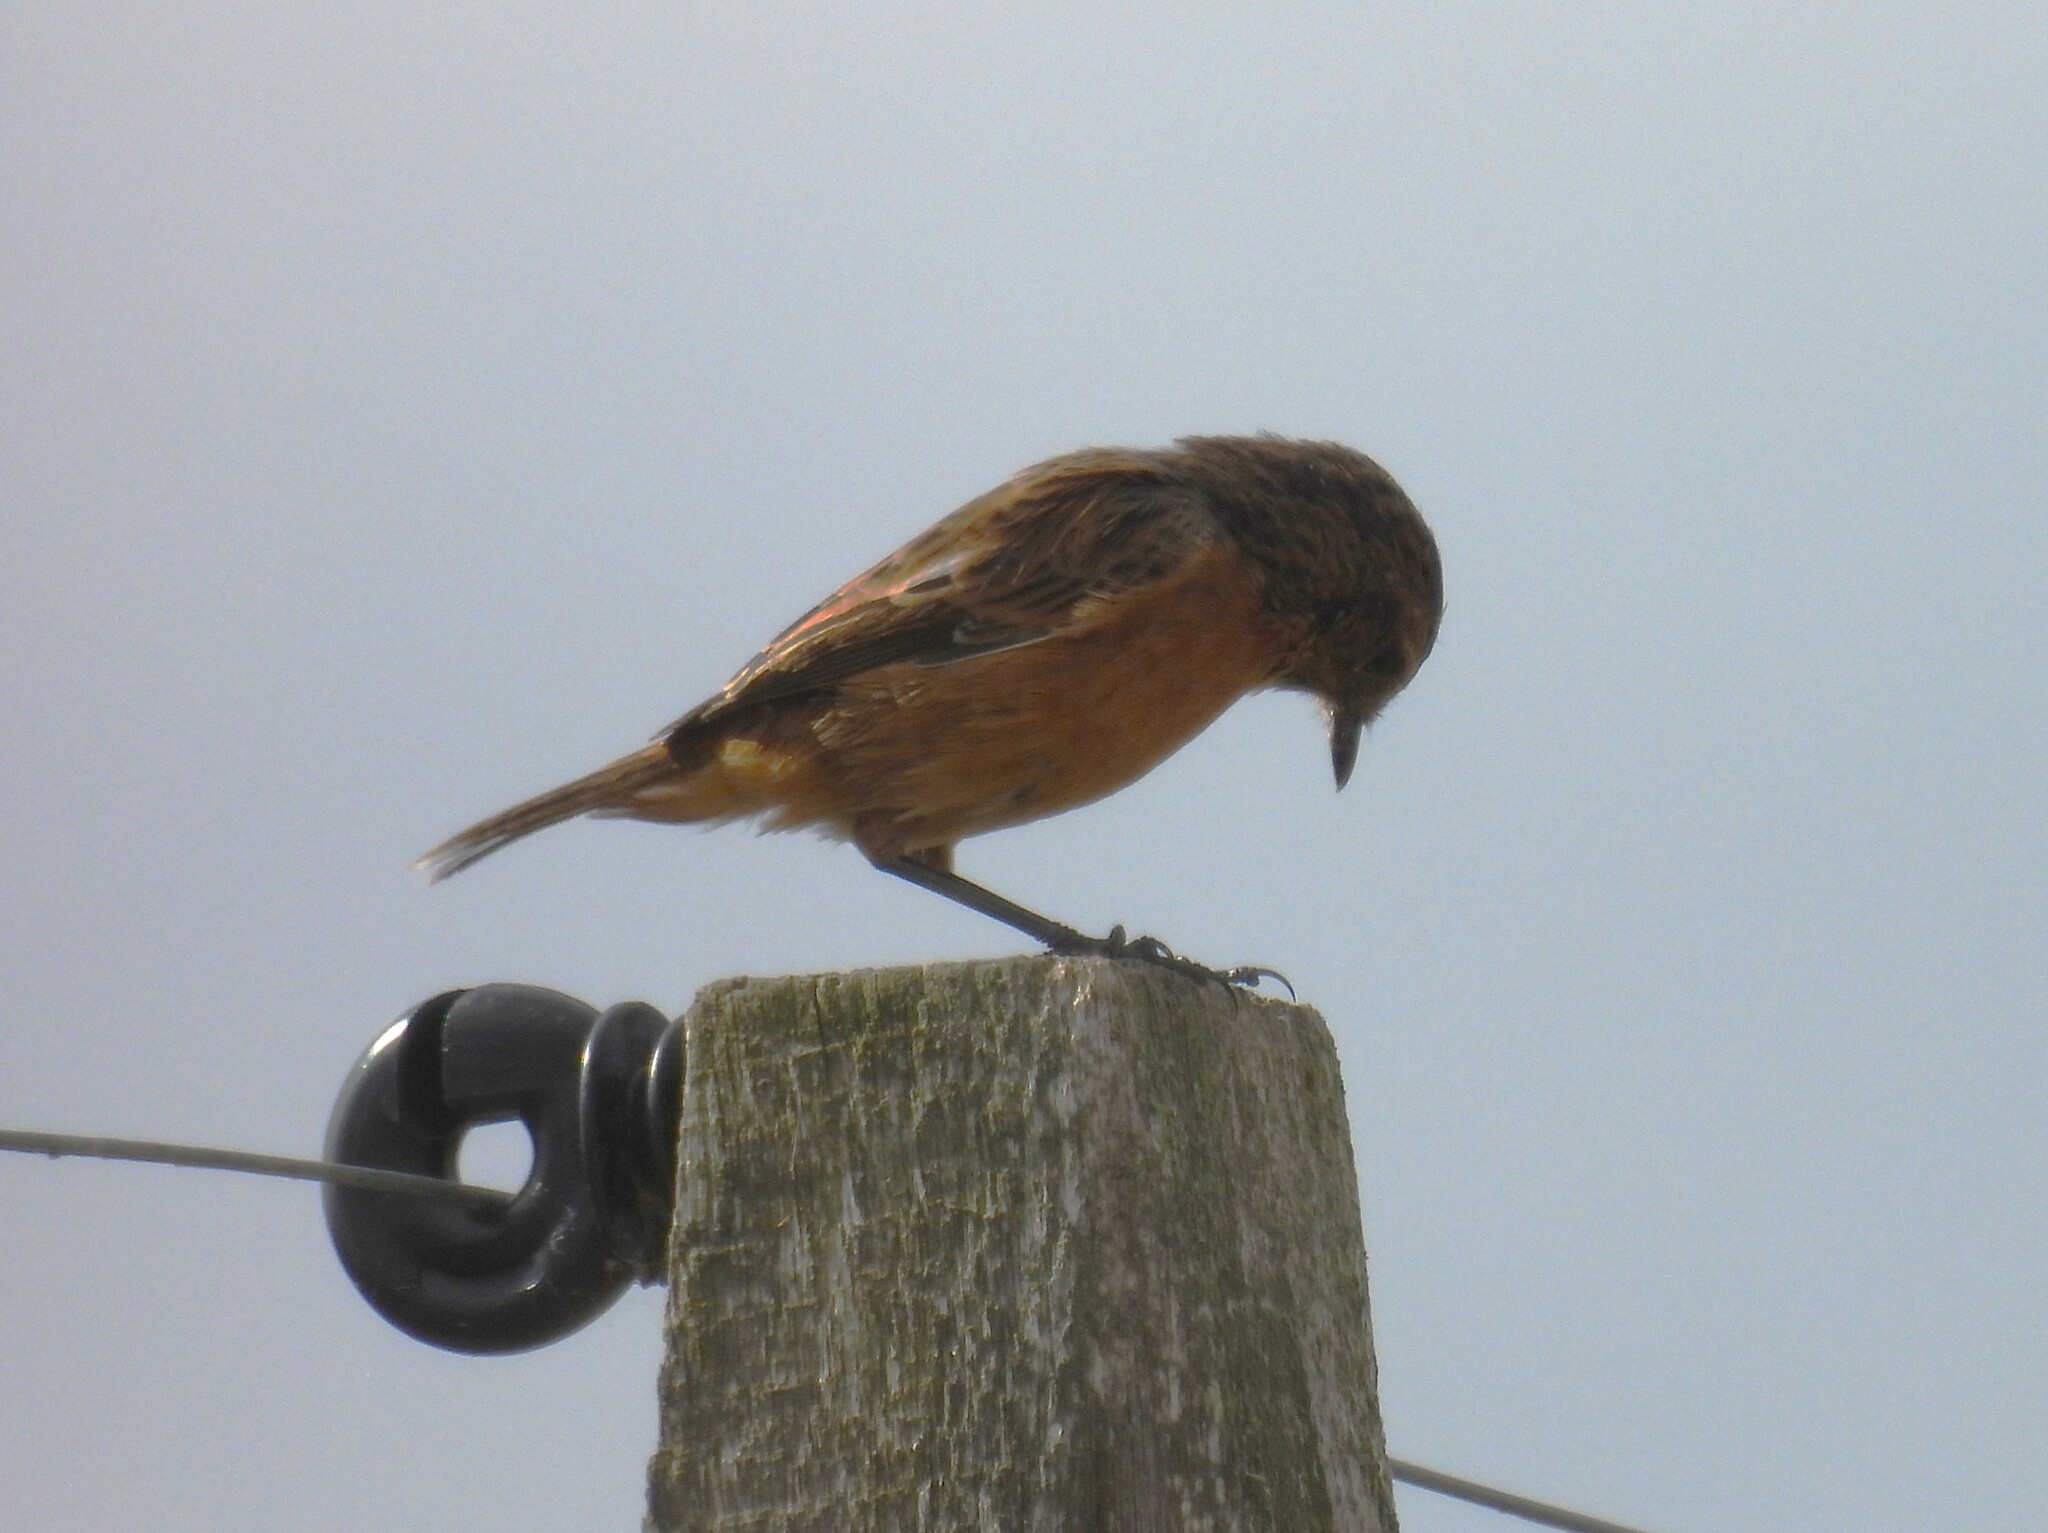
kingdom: Animalia
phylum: Chordata
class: Aves
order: Passeriformes
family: Muscicapidae
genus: Saxicola
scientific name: Saxicola rubicola
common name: European stonechat
